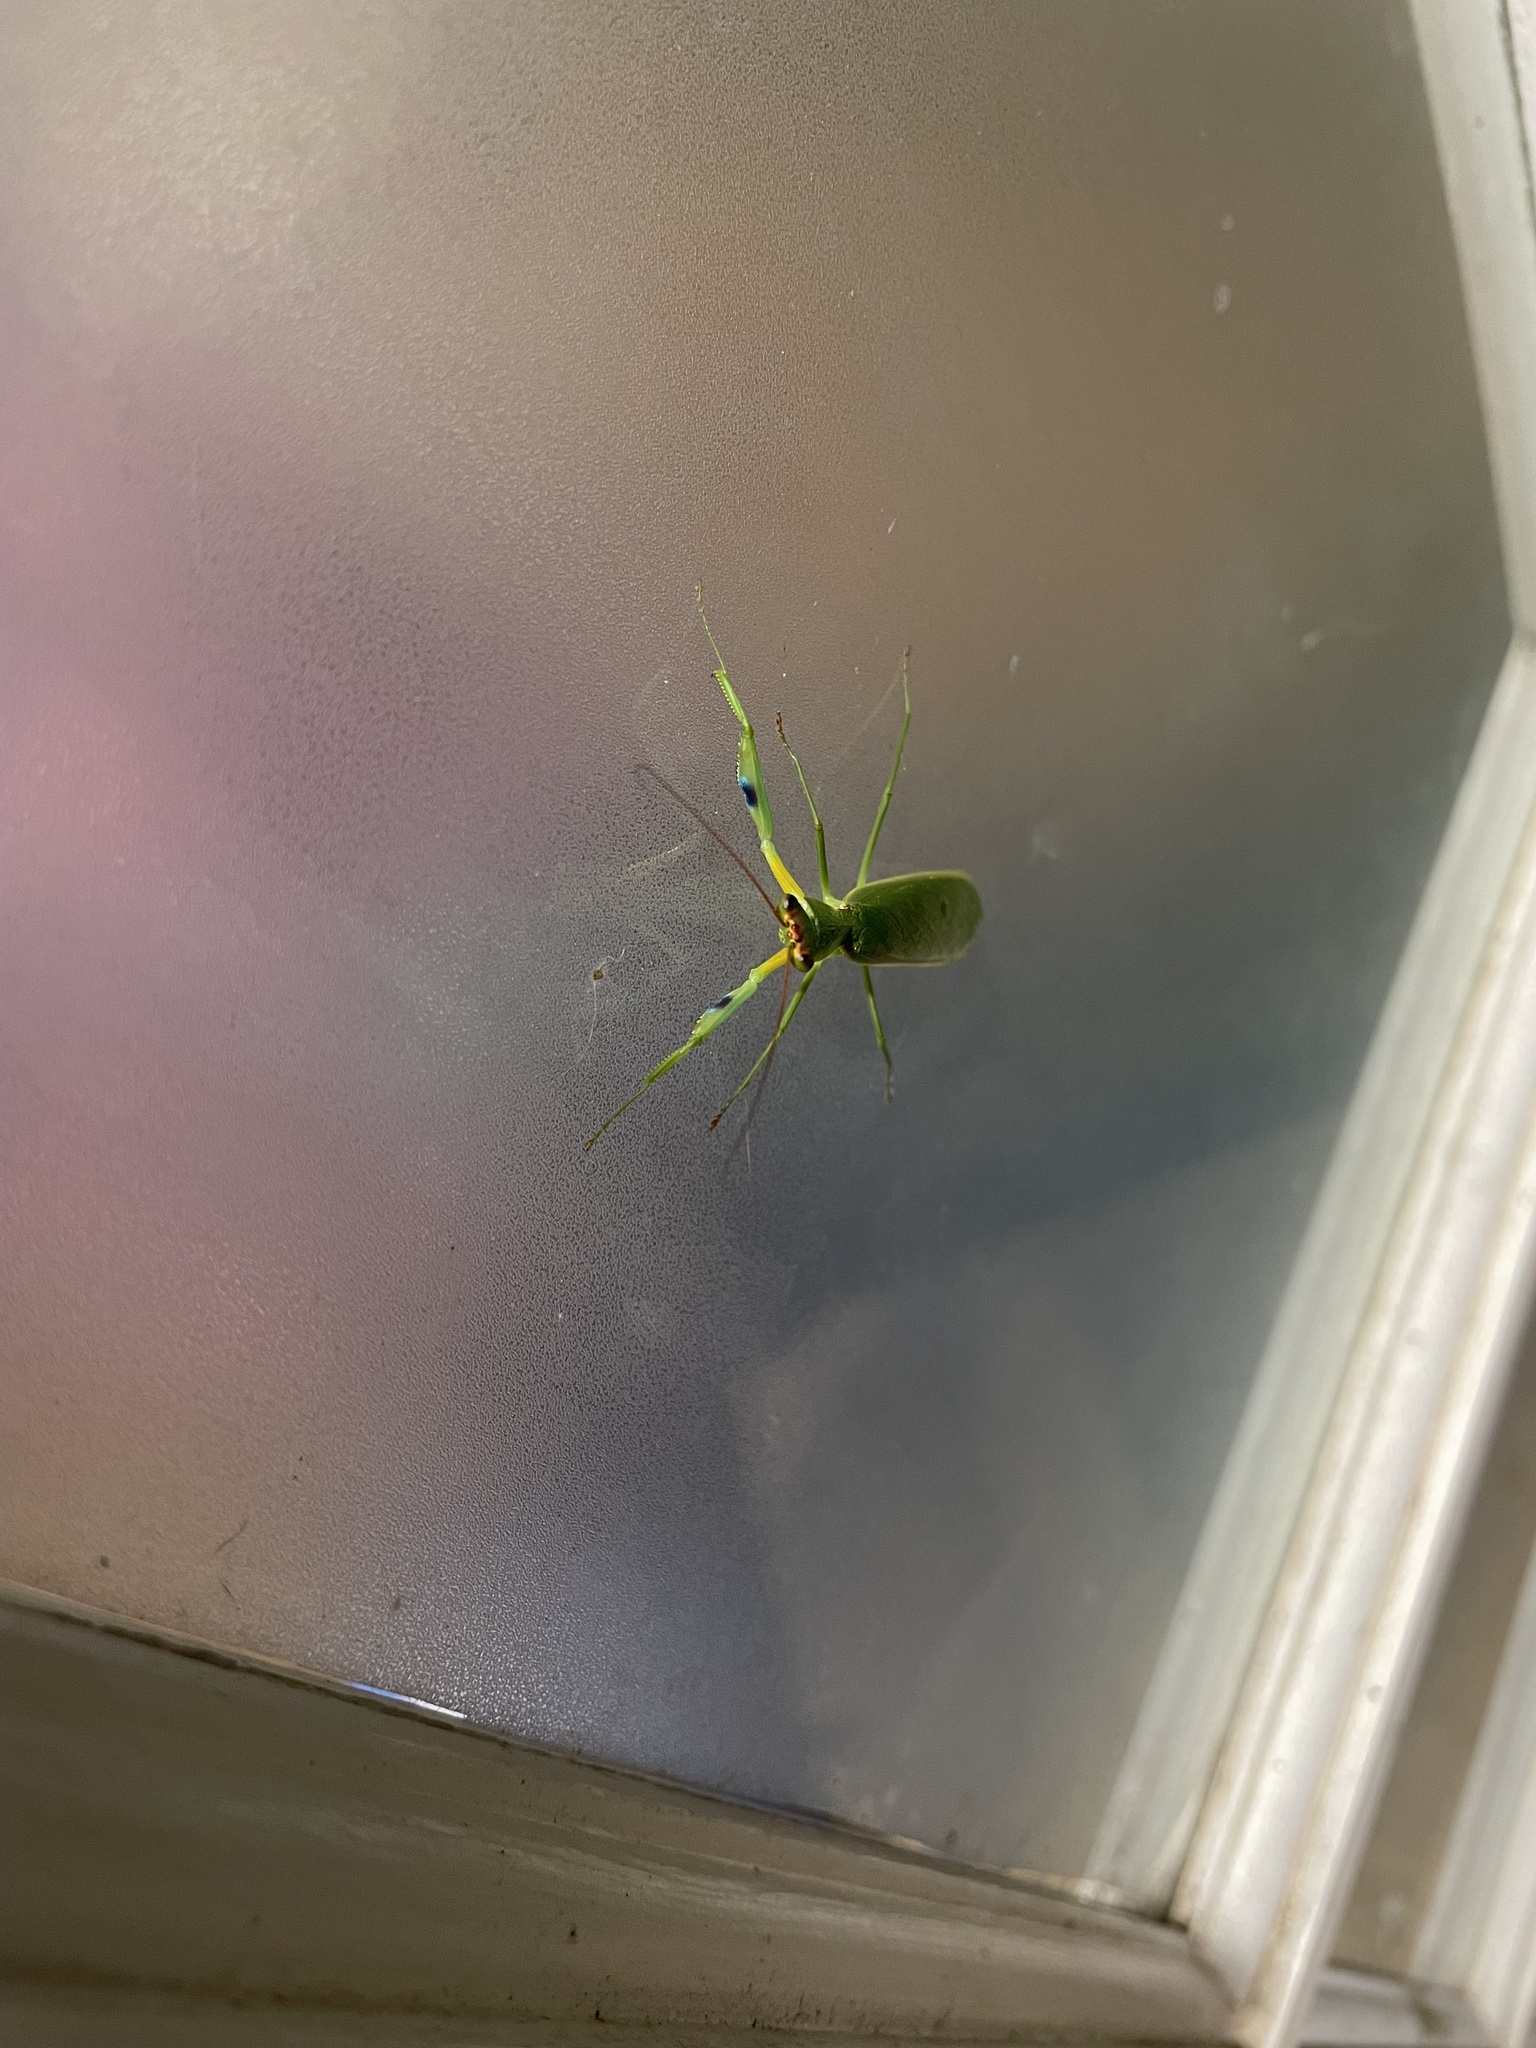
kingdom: Animalia
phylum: Arthropoda
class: Insecta
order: Mantodea
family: Mantidae
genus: Orthodera
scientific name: Orthodera ministralis
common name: Mantis
